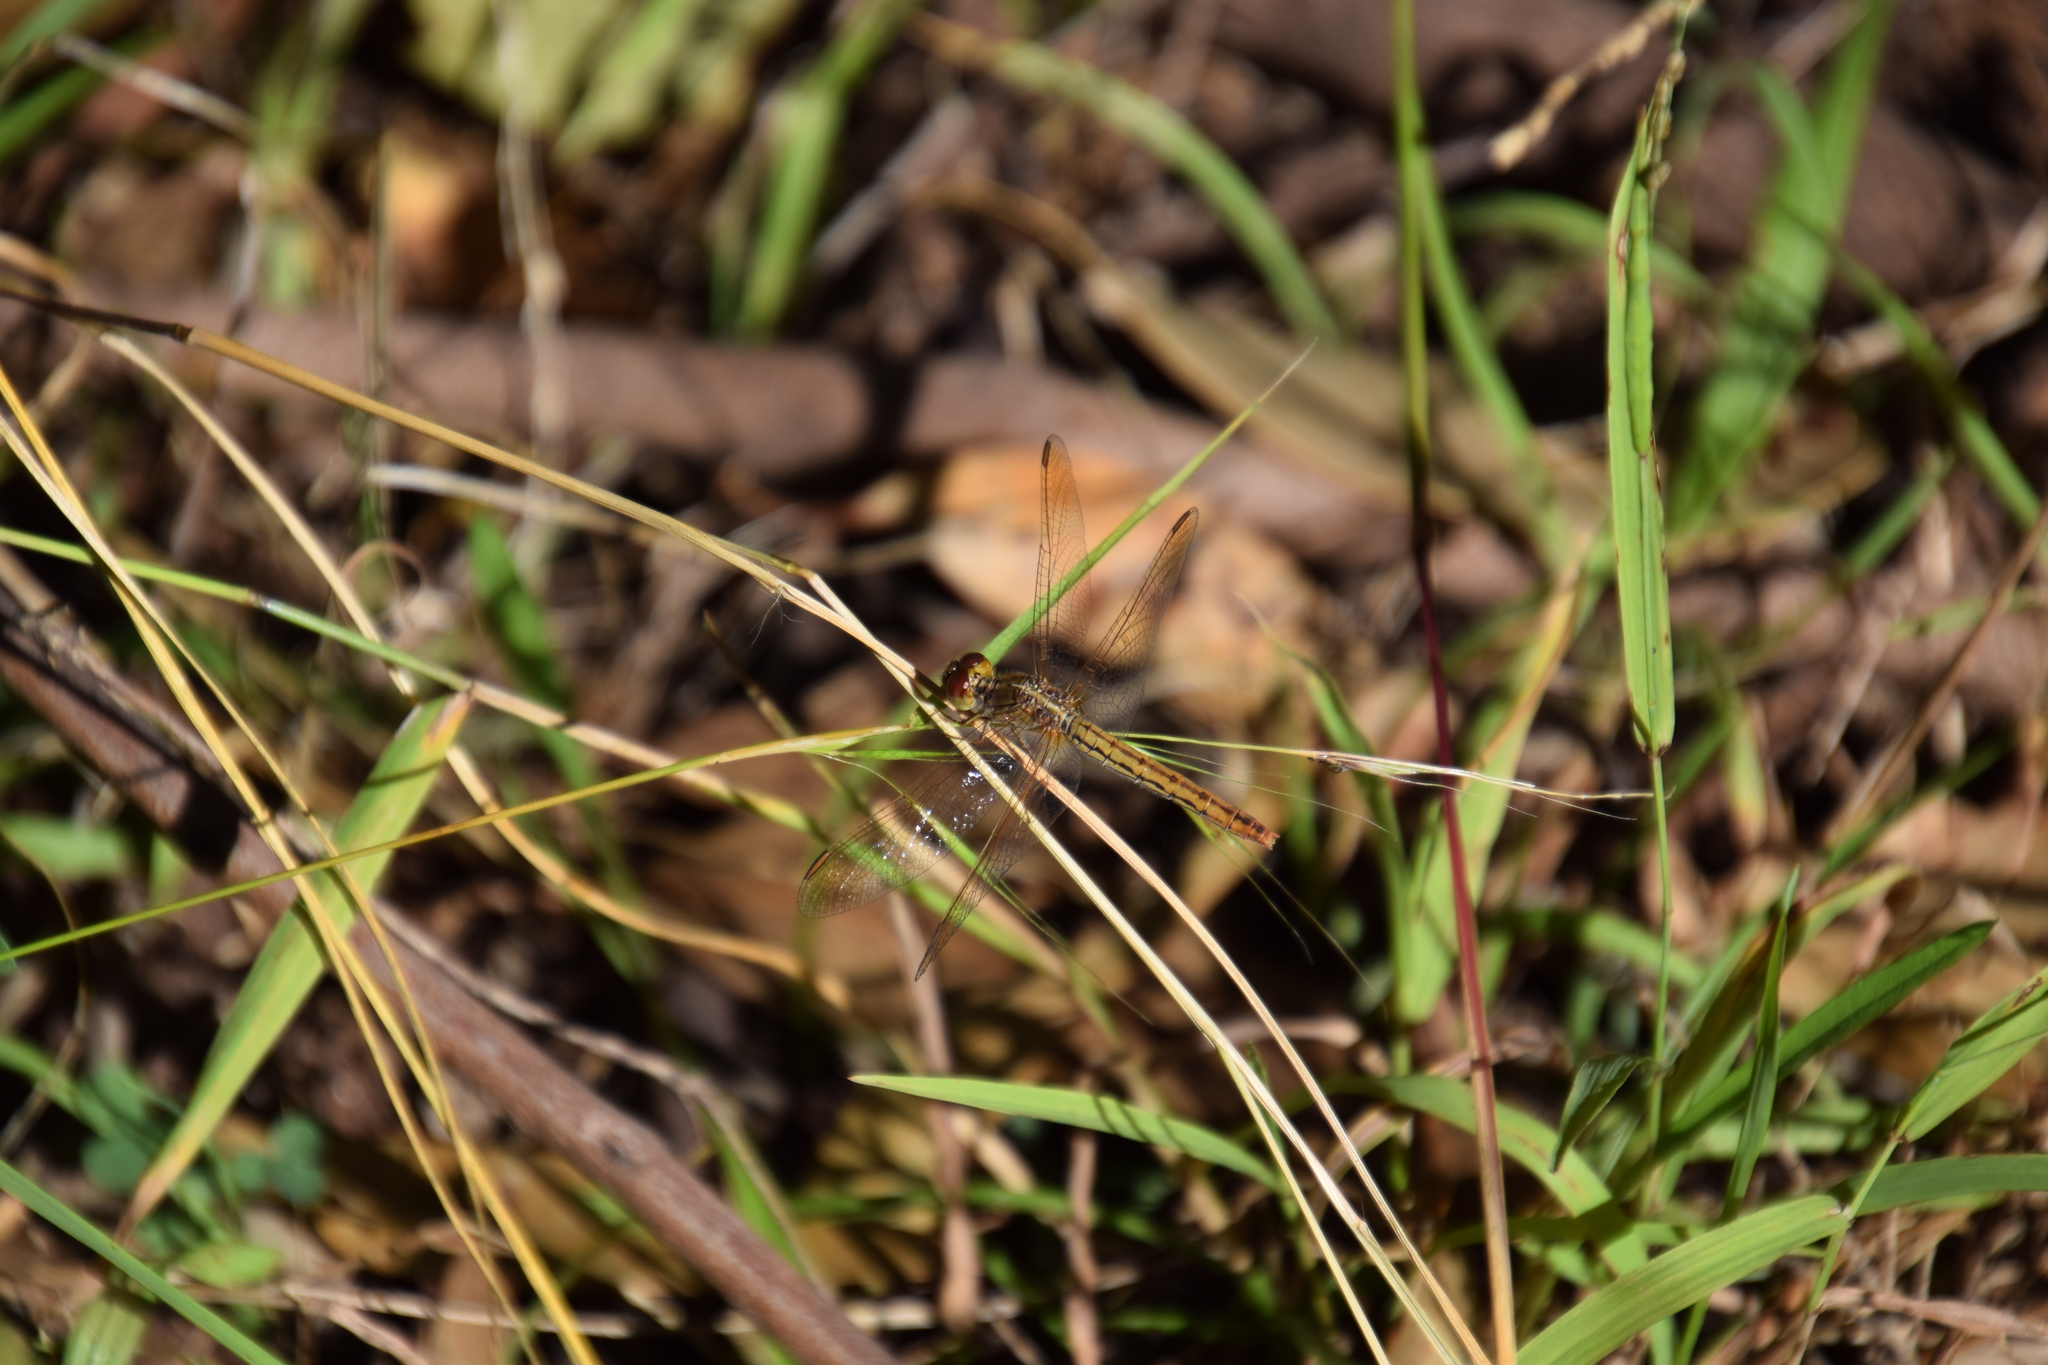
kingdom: Animalia
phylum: Arthropoda
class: Insecta
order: Odonata
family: Libellulidae
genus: Diplacodes
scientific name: Diplacodes haematodes
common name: Scarlet percher
